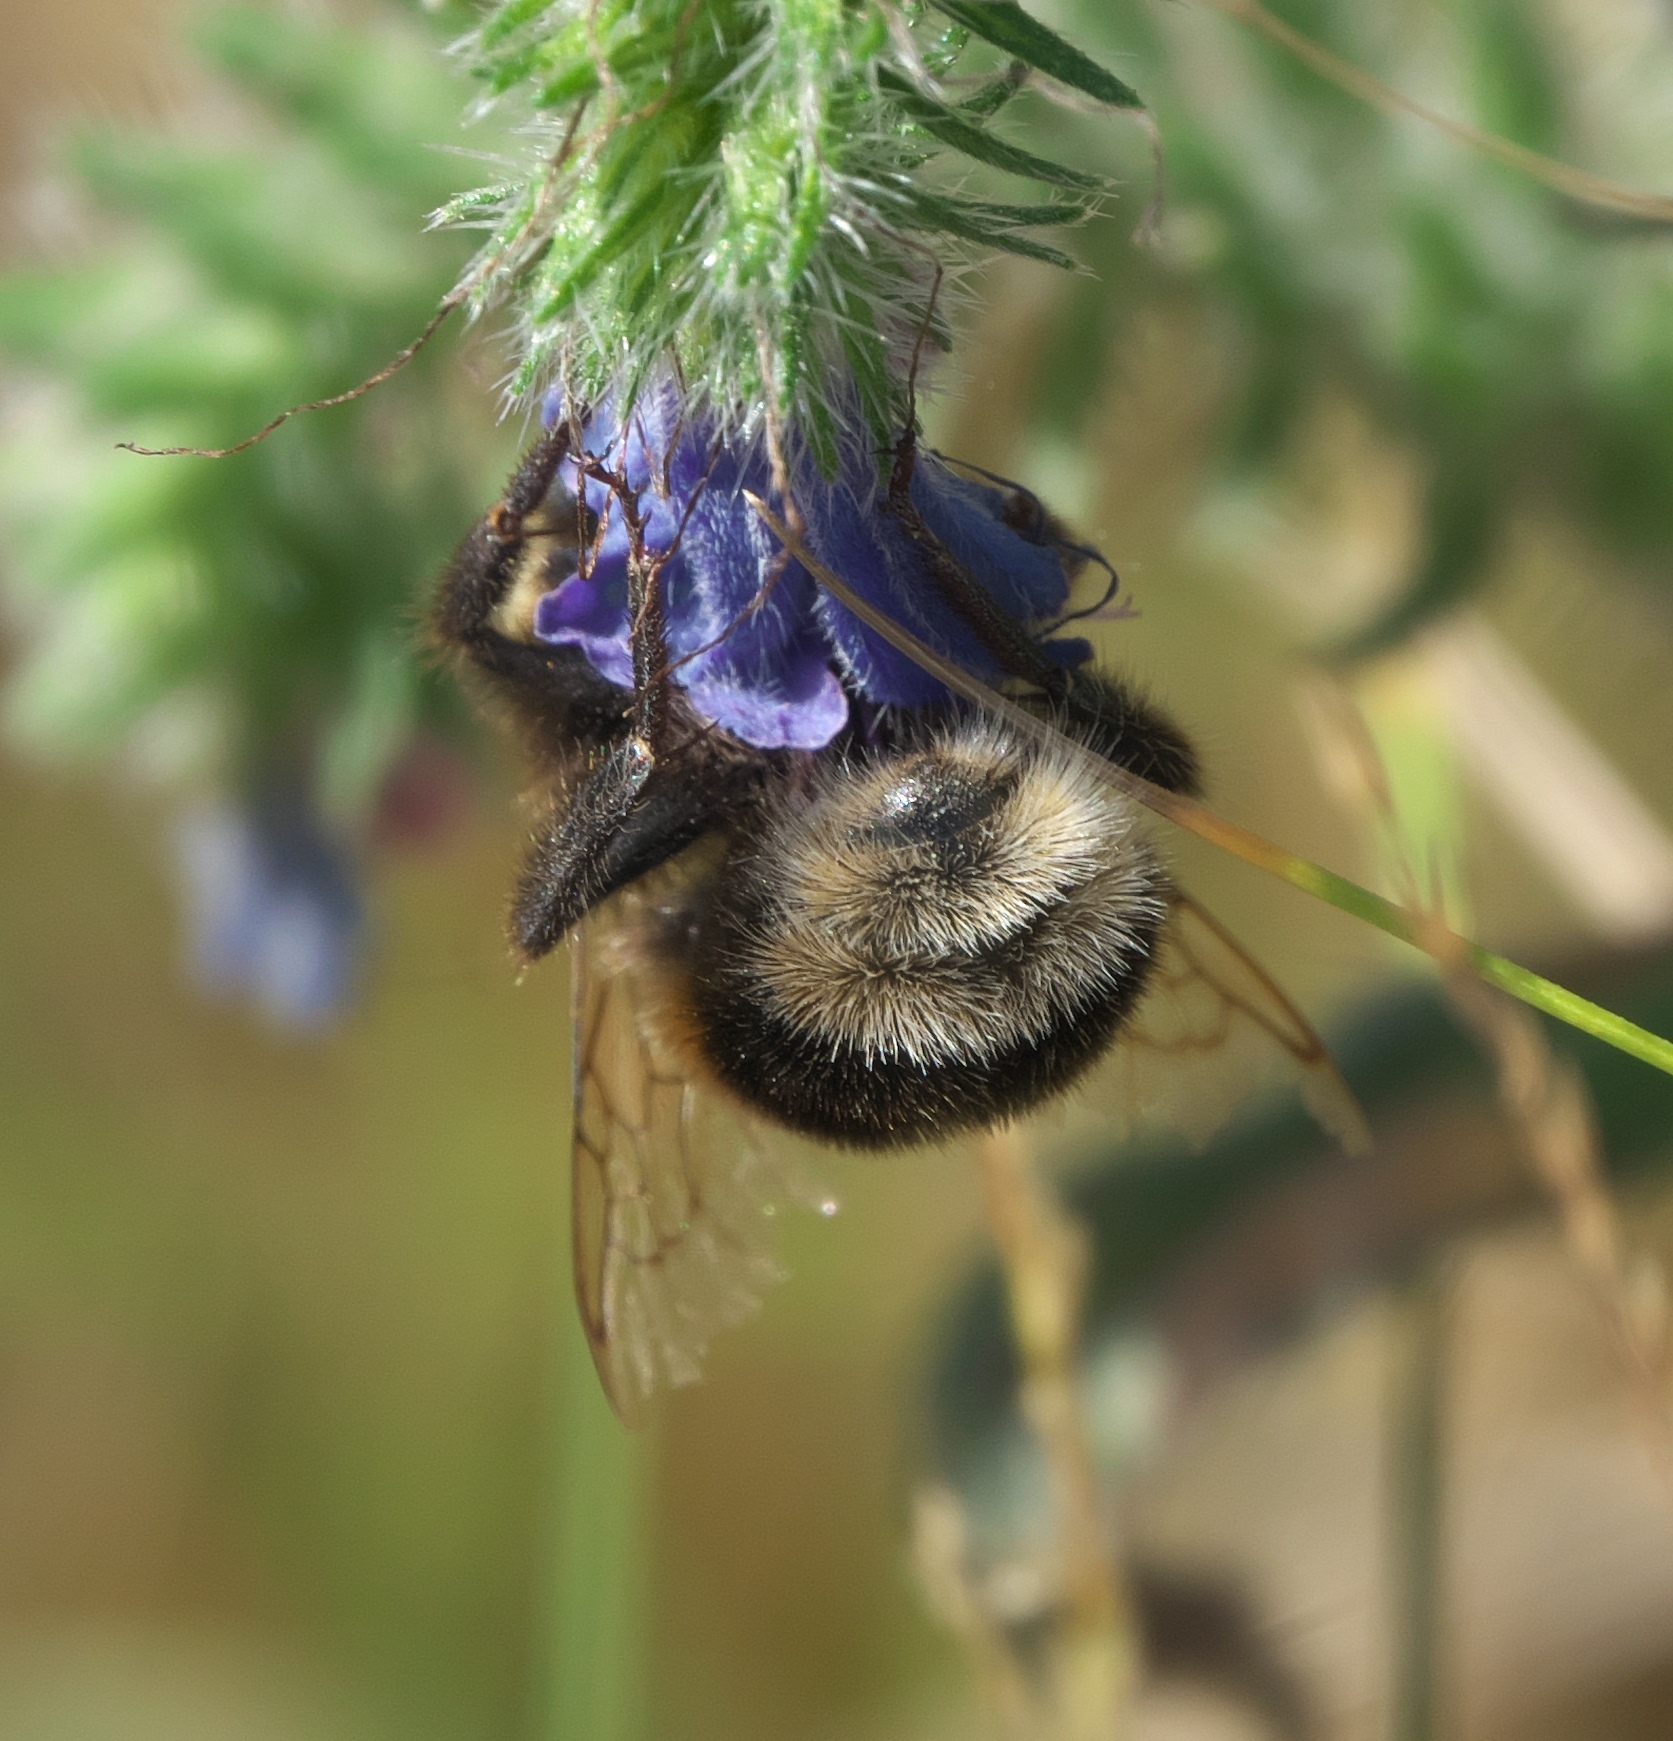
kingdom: Animalia
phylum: Arthropoda
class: Insecta
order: Hymenoptera
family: Apidae
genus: Bombus
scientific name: Bombus terrestris
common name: Buff-tailed bumblebee
